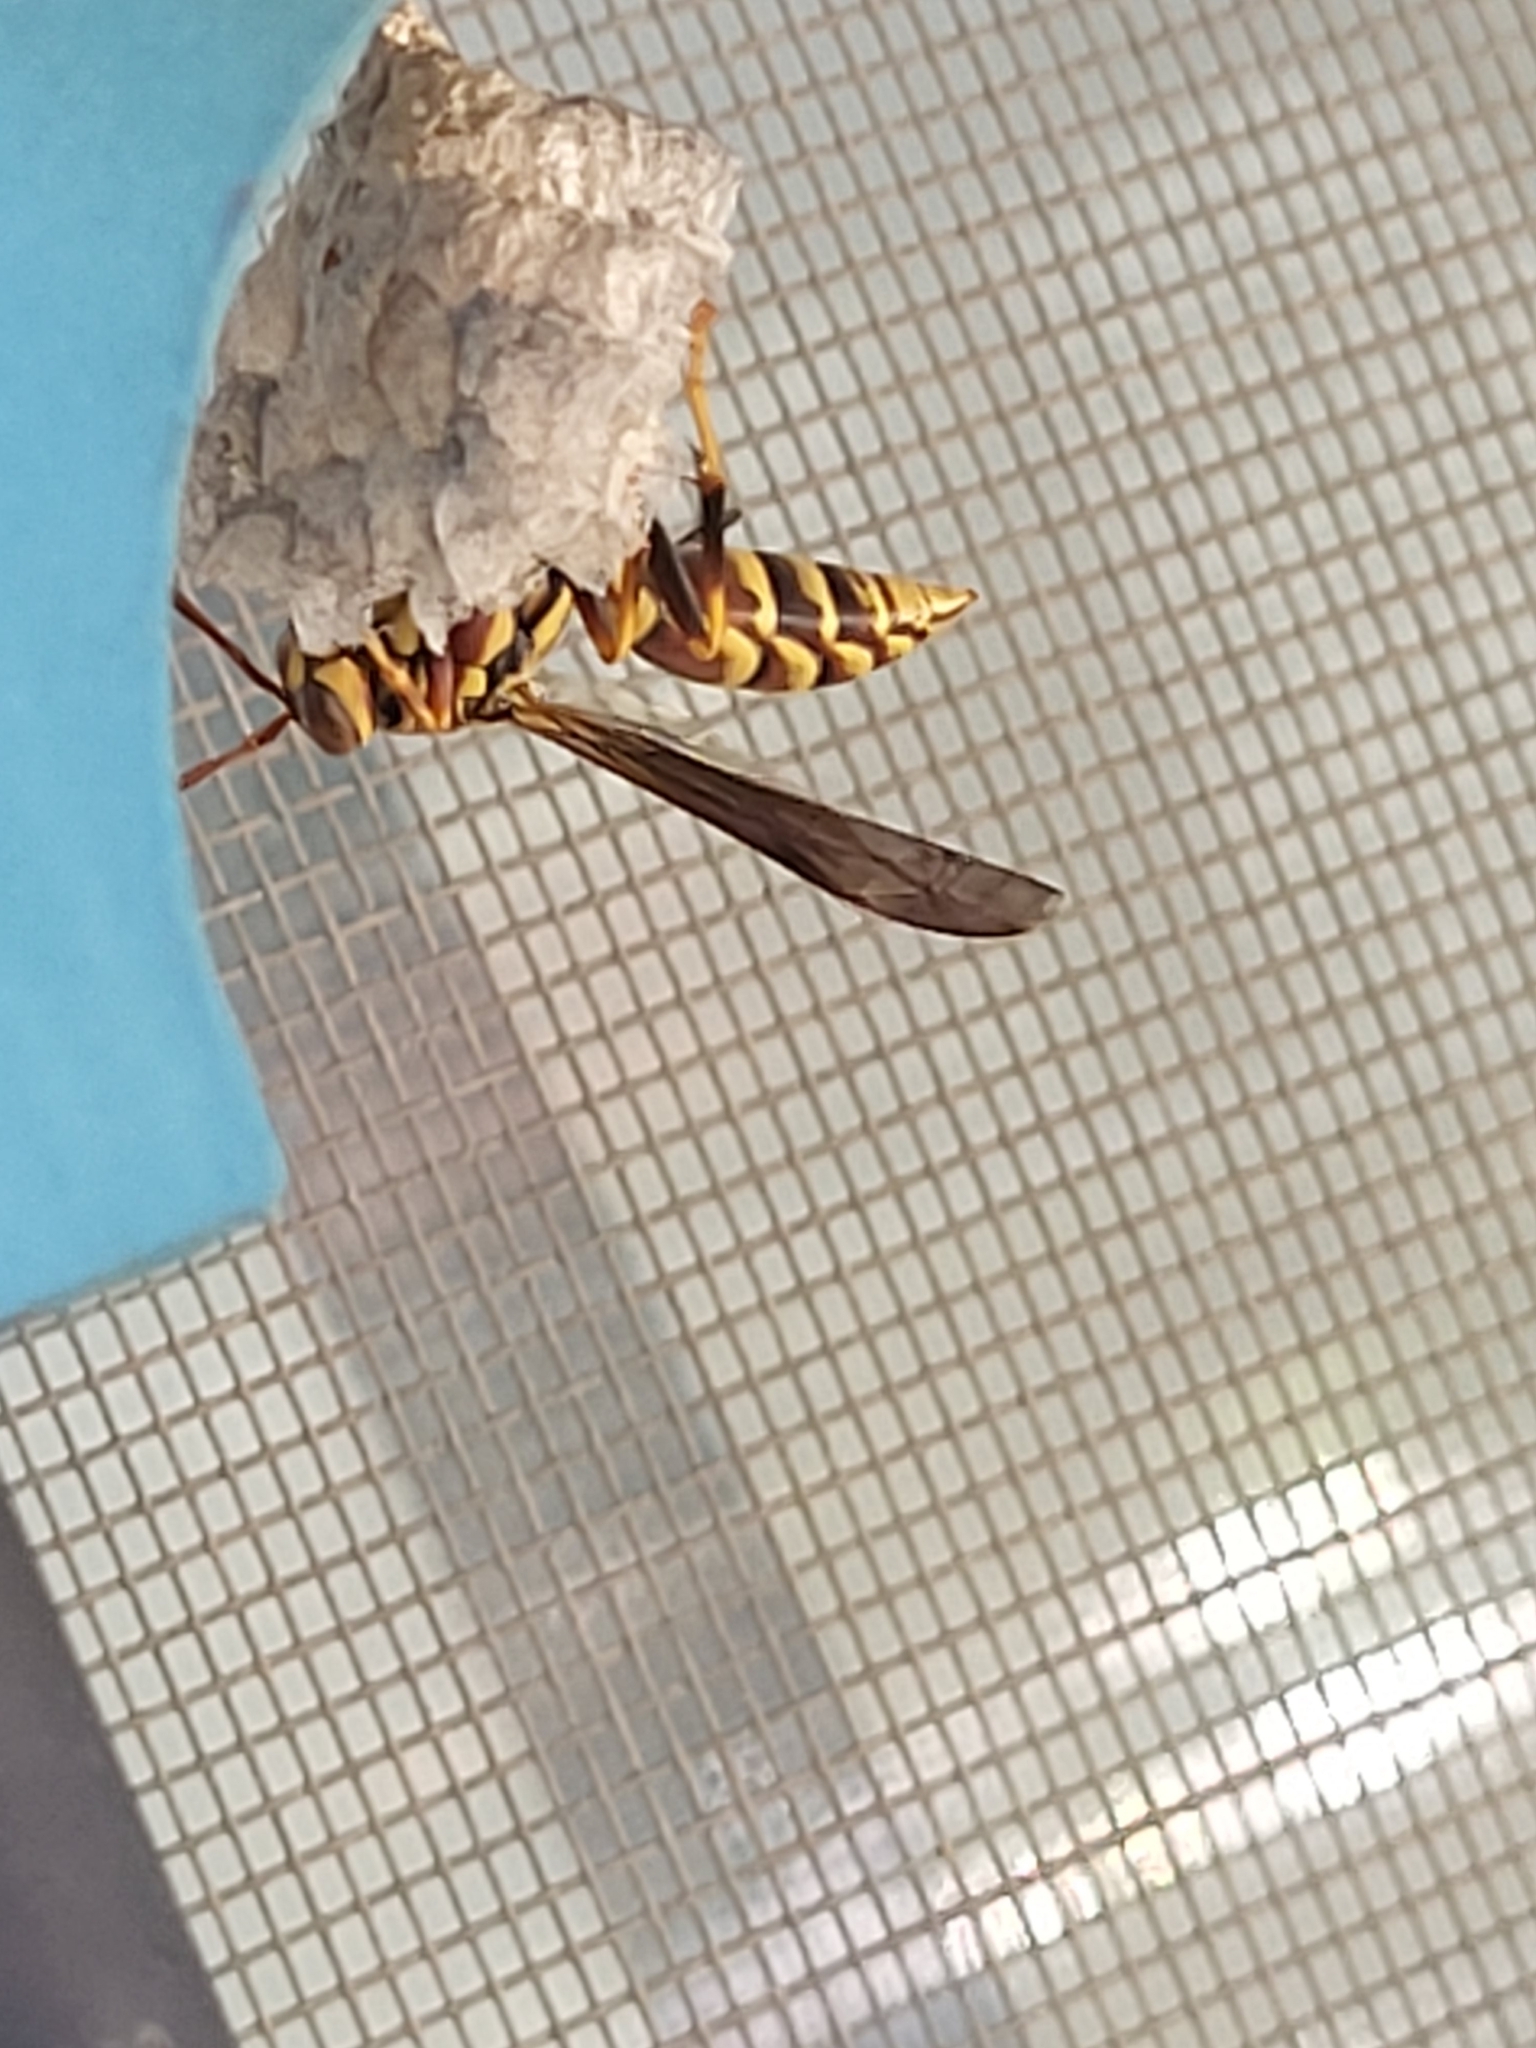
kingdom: Animalia
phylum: Arthropoda
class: Insecta
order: Hymenoptera
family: Eumenidae
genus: Polistes
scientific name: Polistes exclamans
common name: Paper wasp
